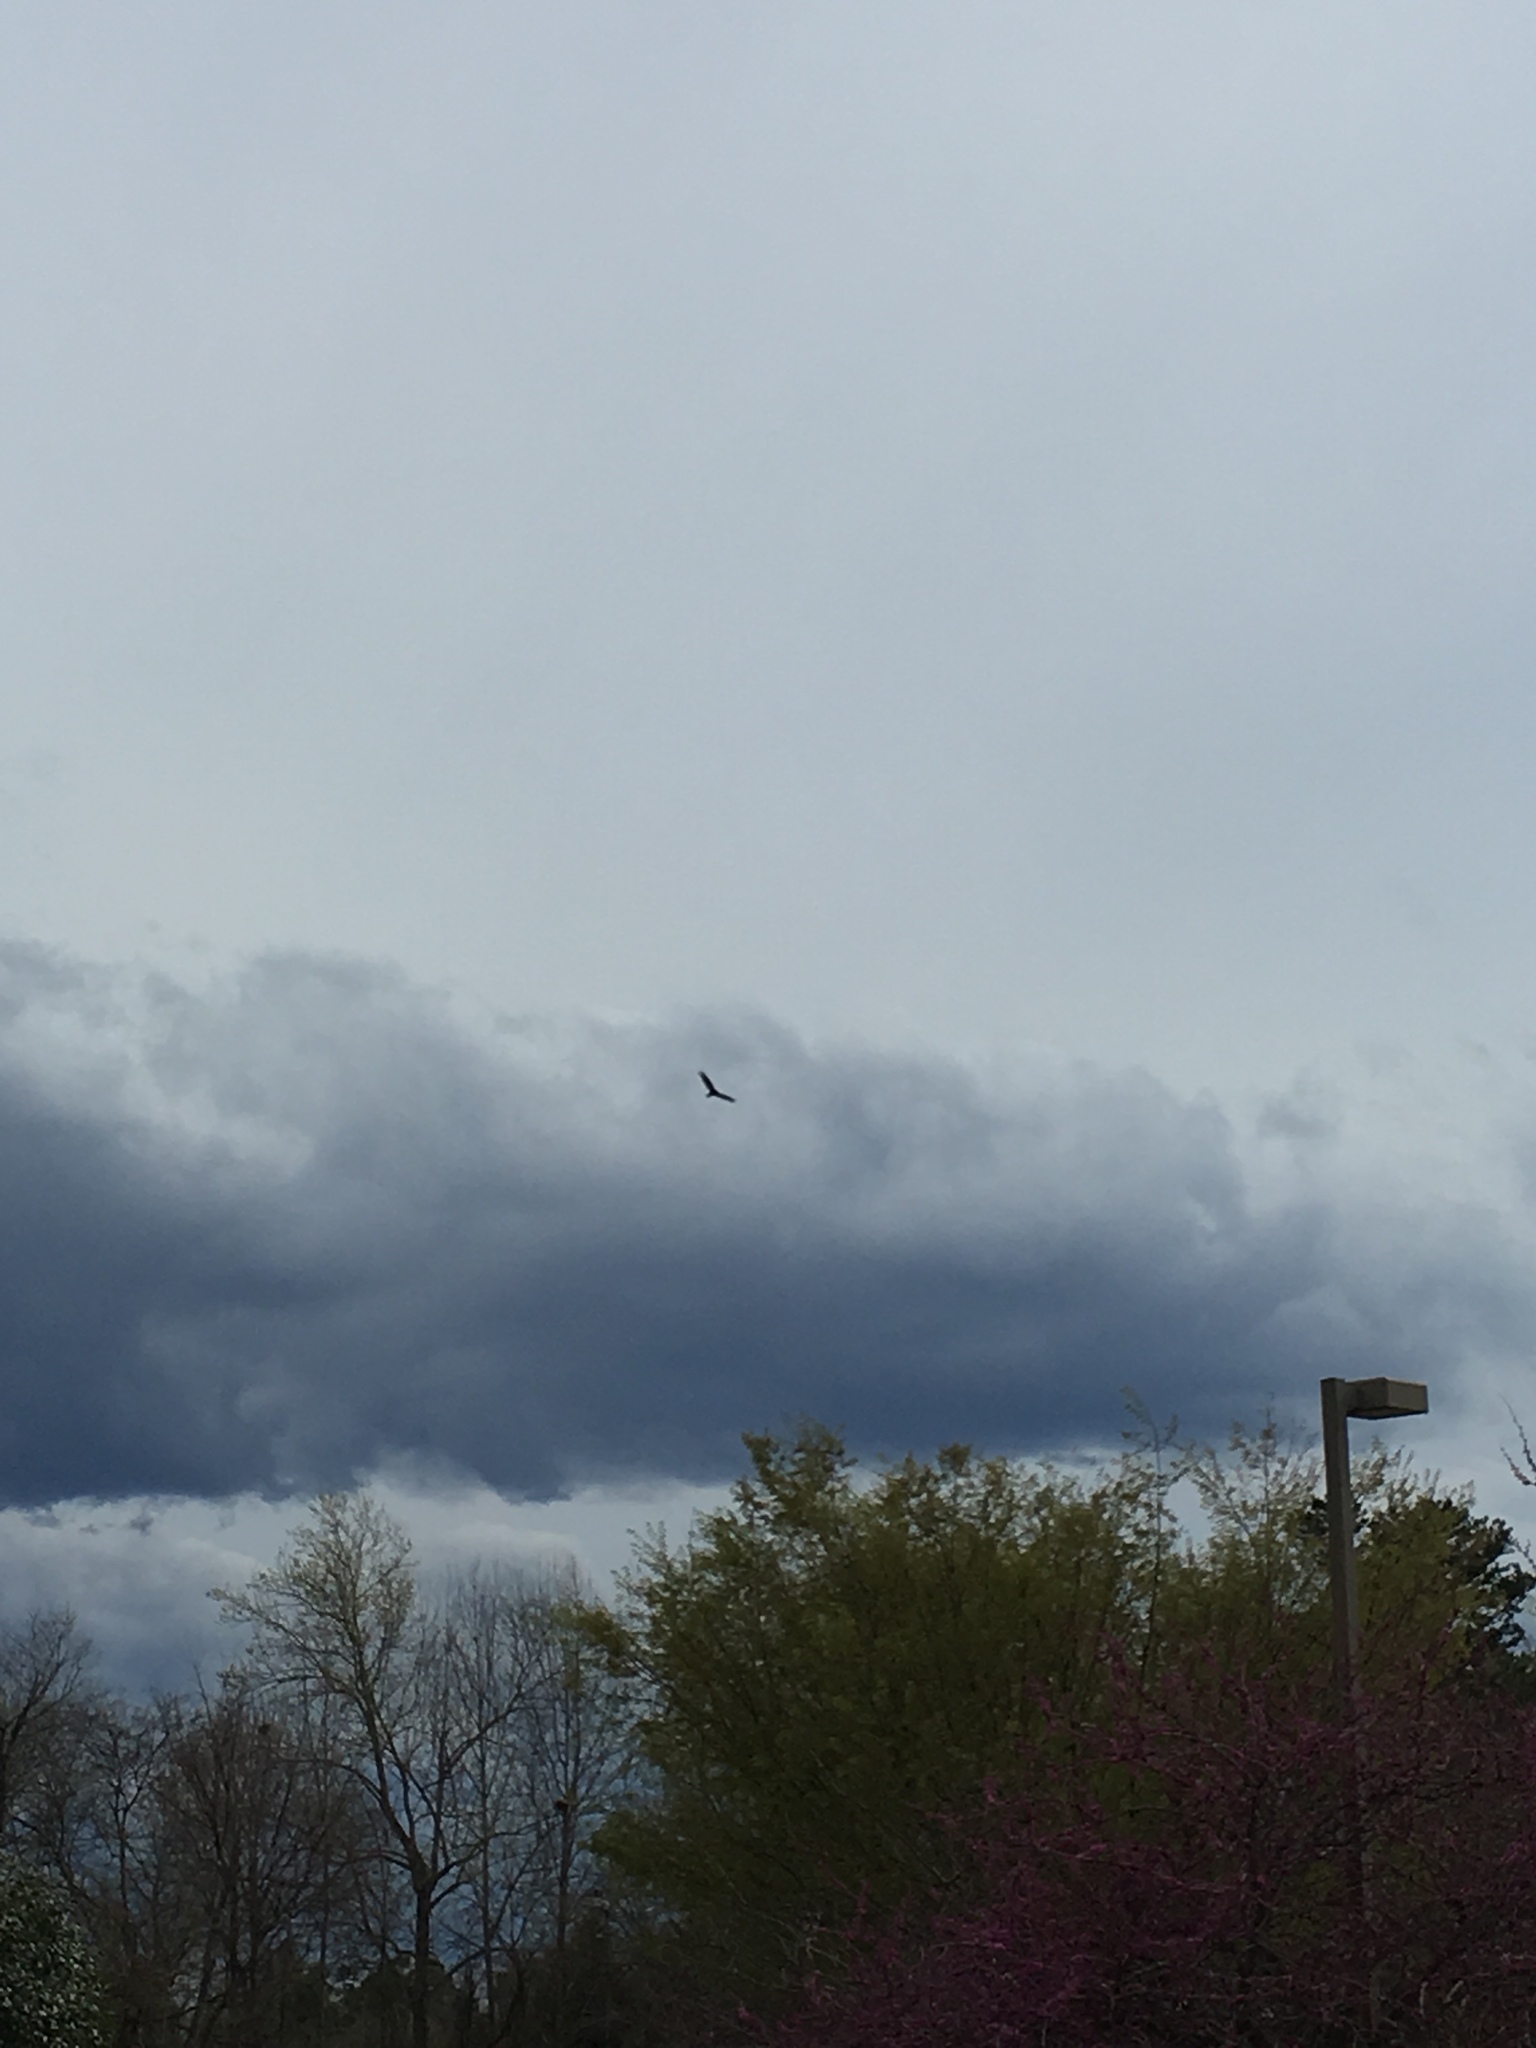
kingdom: Animalia
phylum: Chordata
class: Aves
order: Accipitriformes
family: Cathartidae
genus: Cathartes
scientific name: Cathartes aura
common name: Turkey vulture
